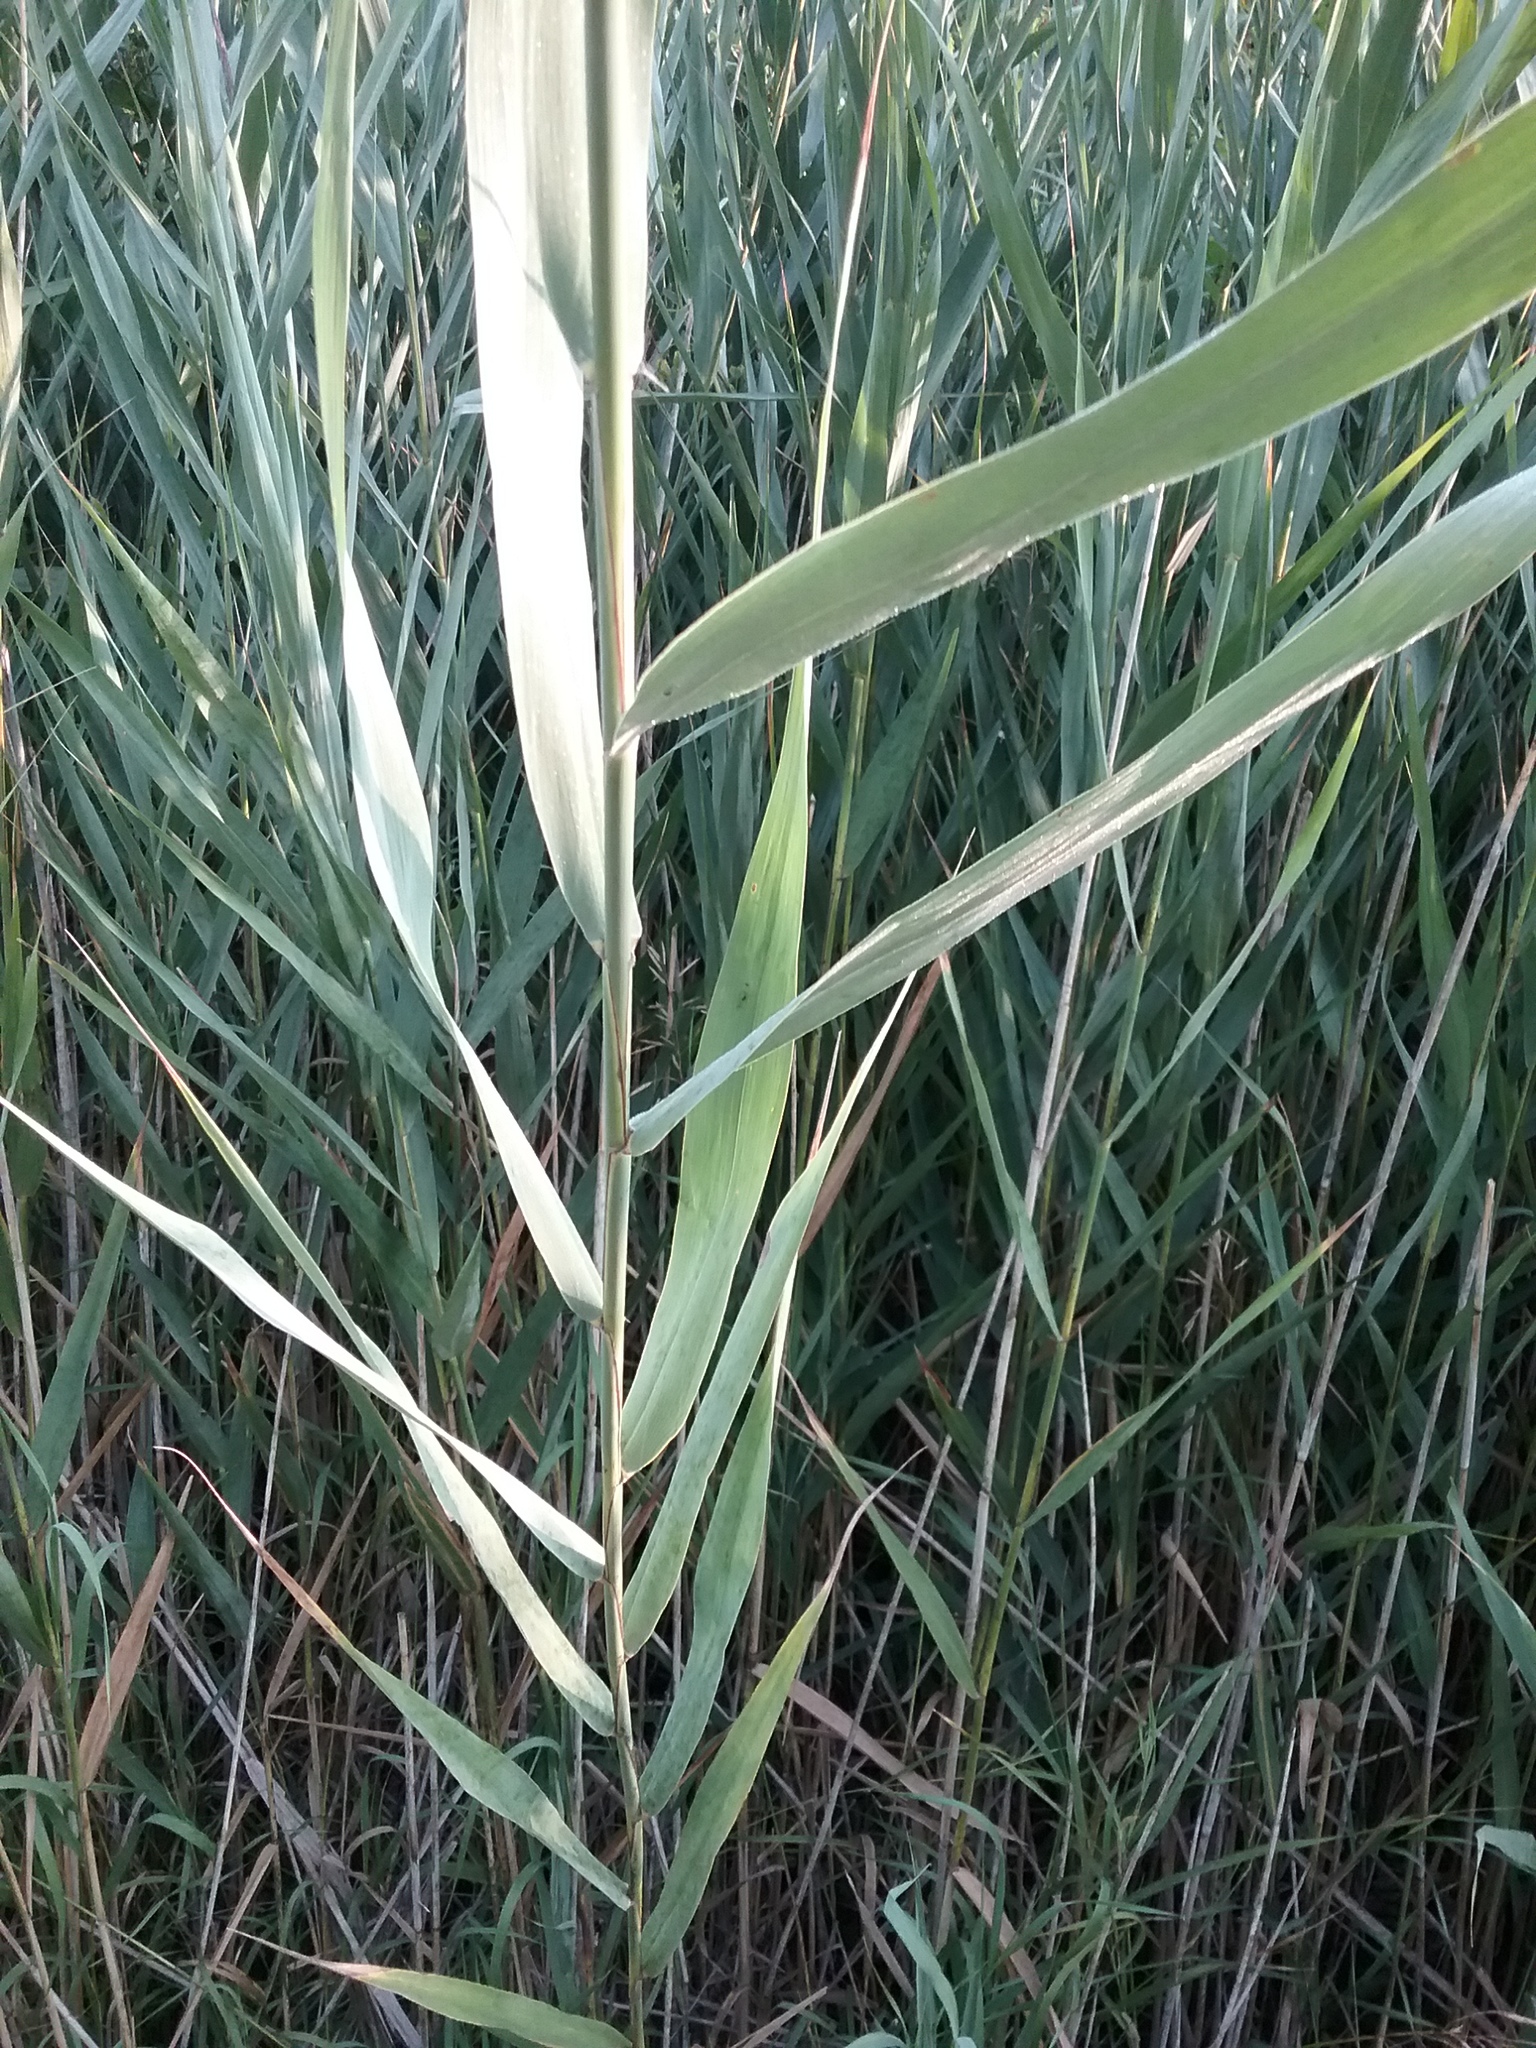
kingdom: Plantae
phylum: Tracheophyta
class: Liliopsida
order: Poales
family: Poaceae
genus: Phragmites
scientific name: Phragmites australis
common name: Common reed
